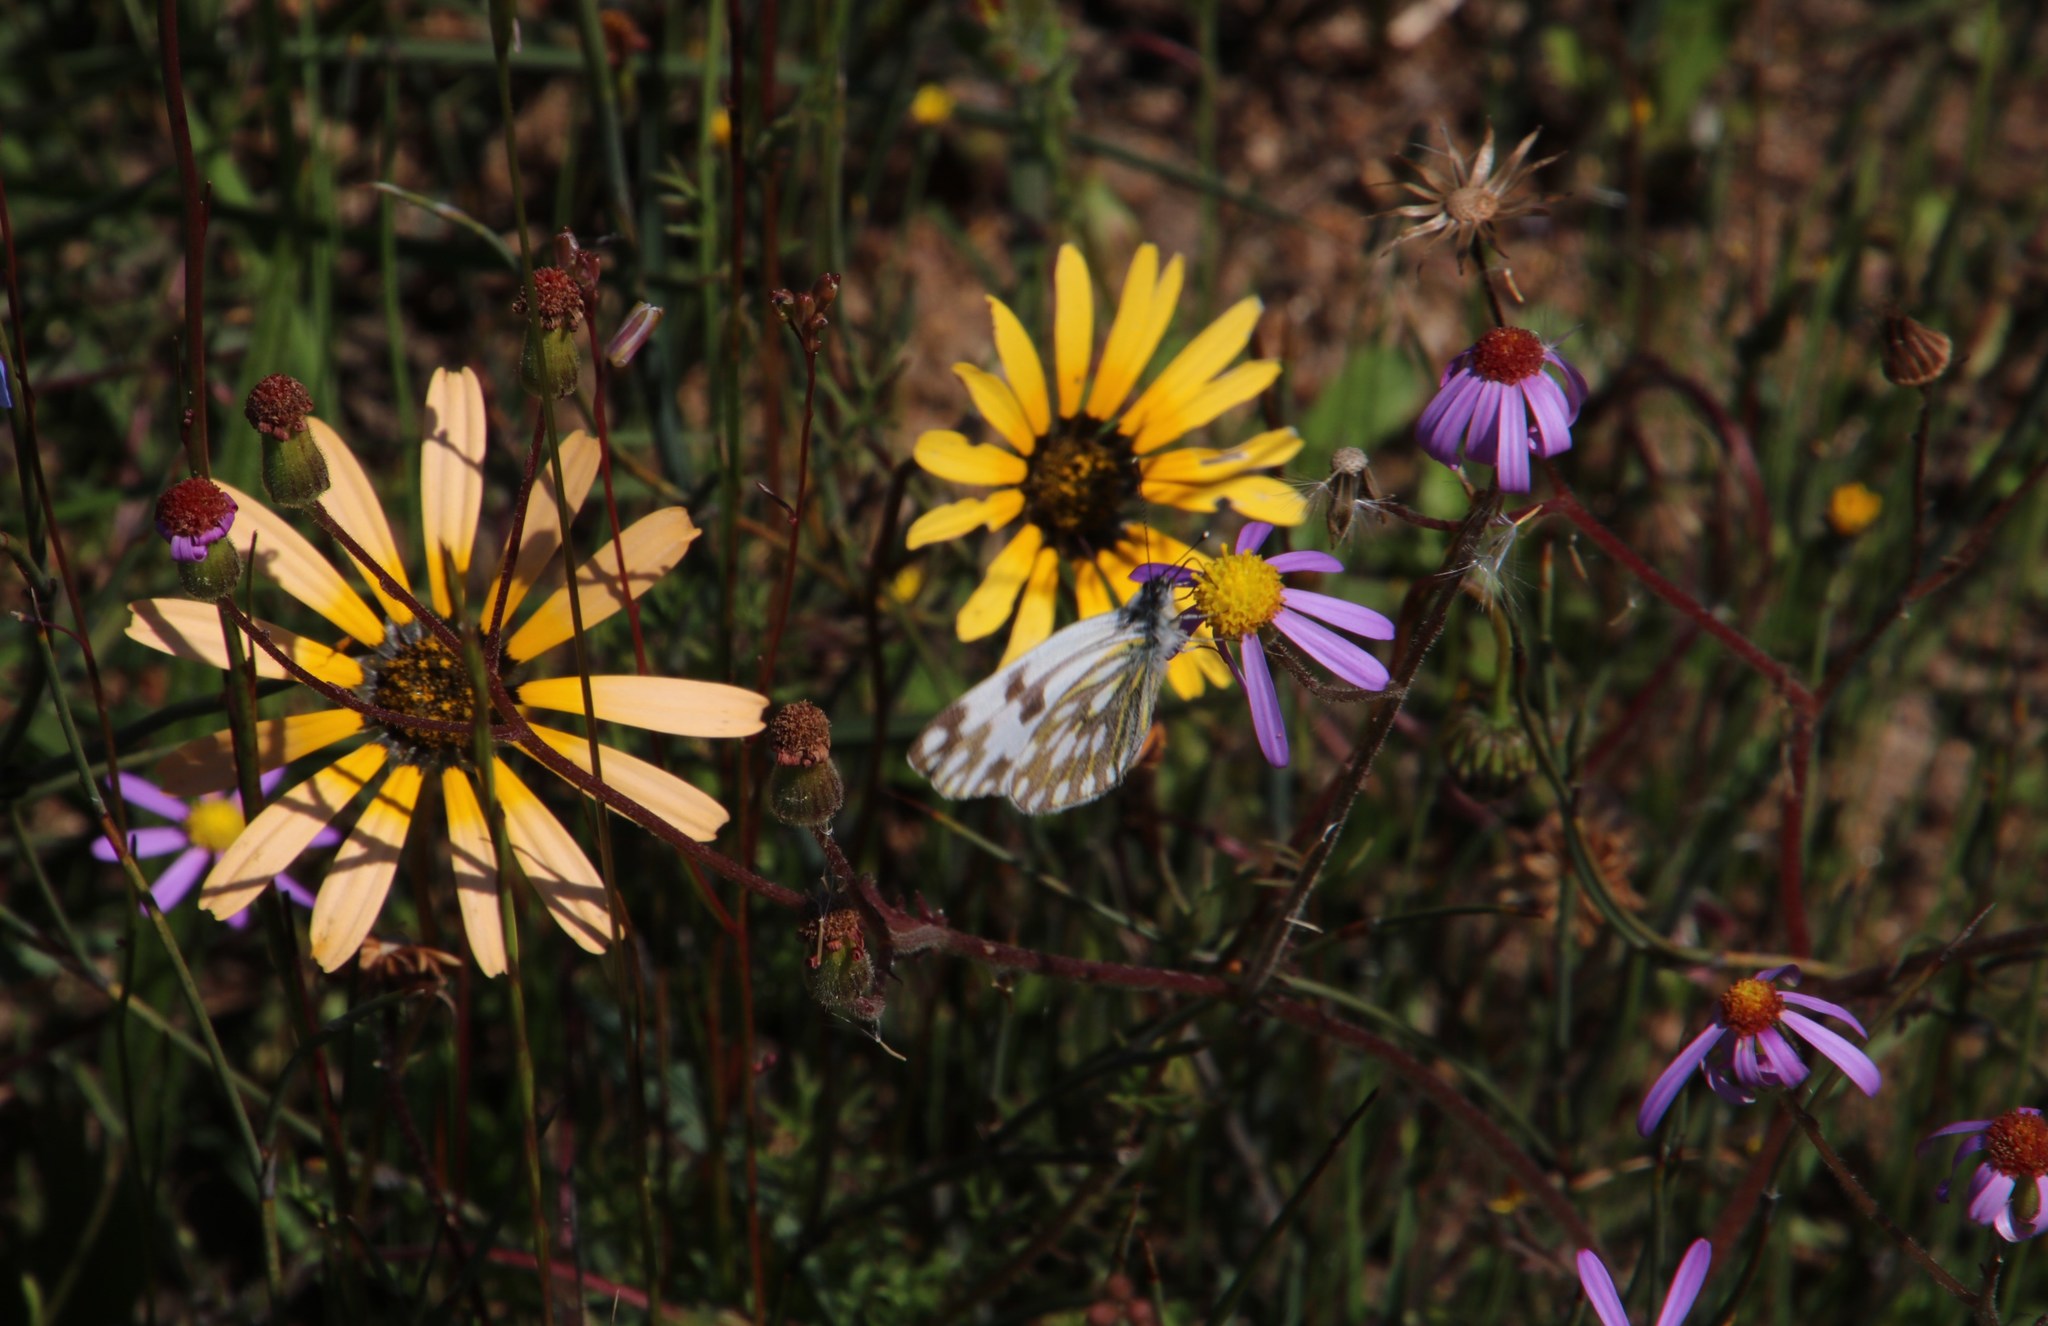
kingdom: Animalia
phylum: Arthropoda
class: Insecta
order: Lepidoptera
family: Pieridae
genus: Pontia
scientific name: Pontia helice
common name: Meadow white
